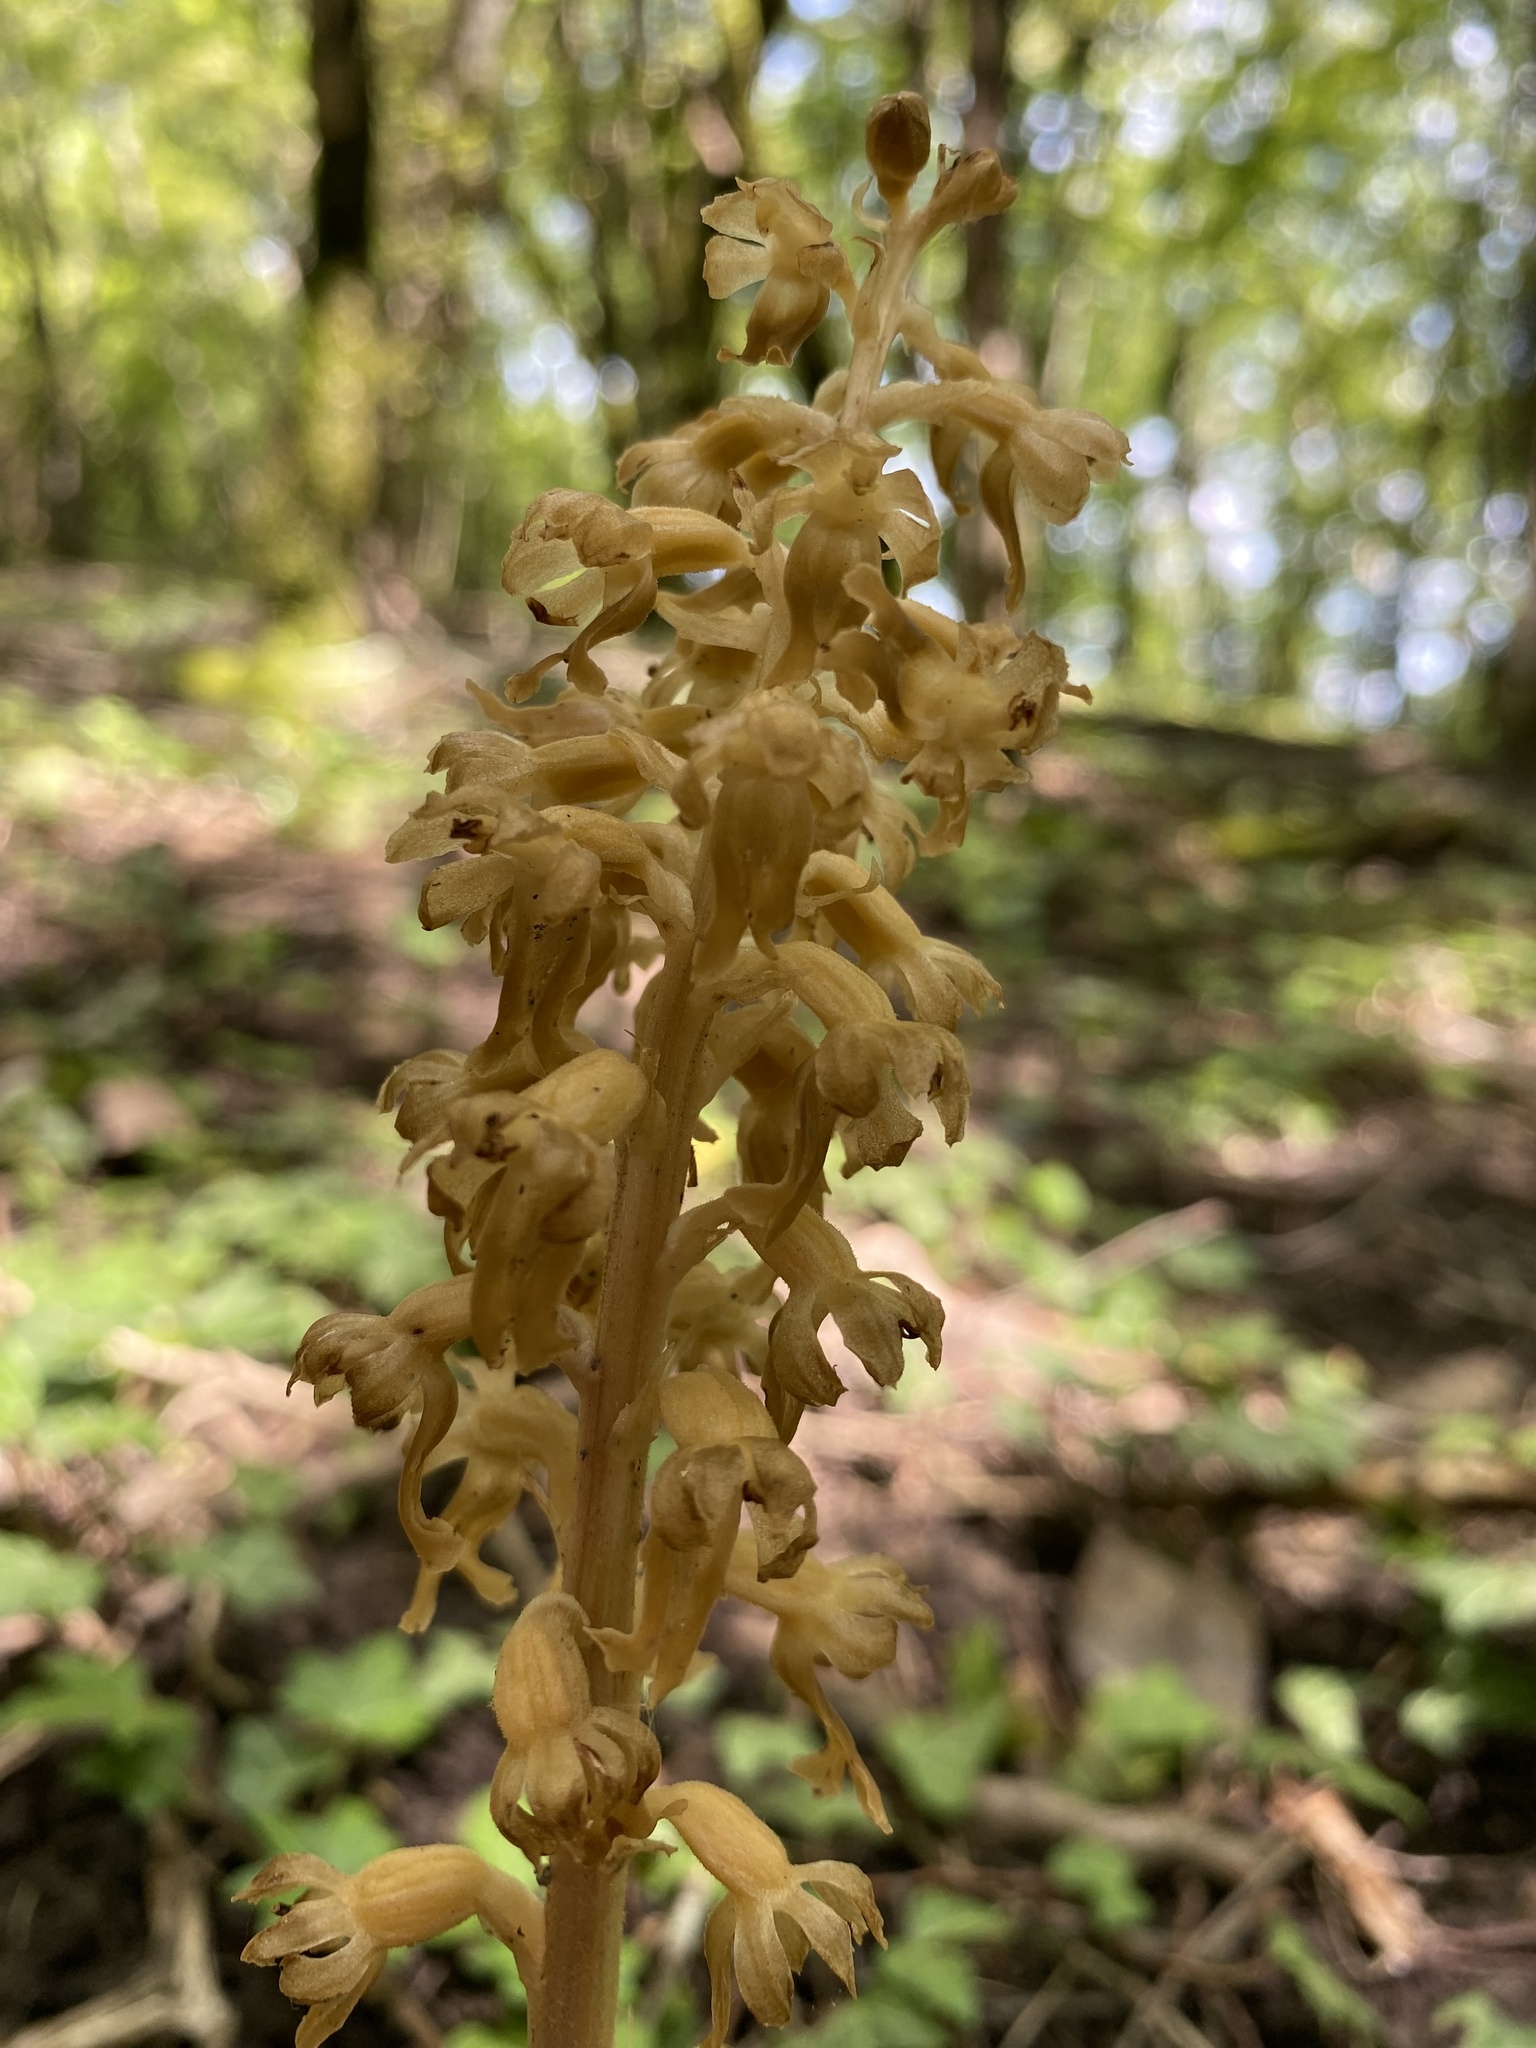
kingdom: Plantae
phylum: Tracheophyta
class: Liliopsida
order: Asparagales
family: Orchidaceae
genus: Neottia
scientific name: Neottia nidus-avis
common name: Bird's-nest orchid
